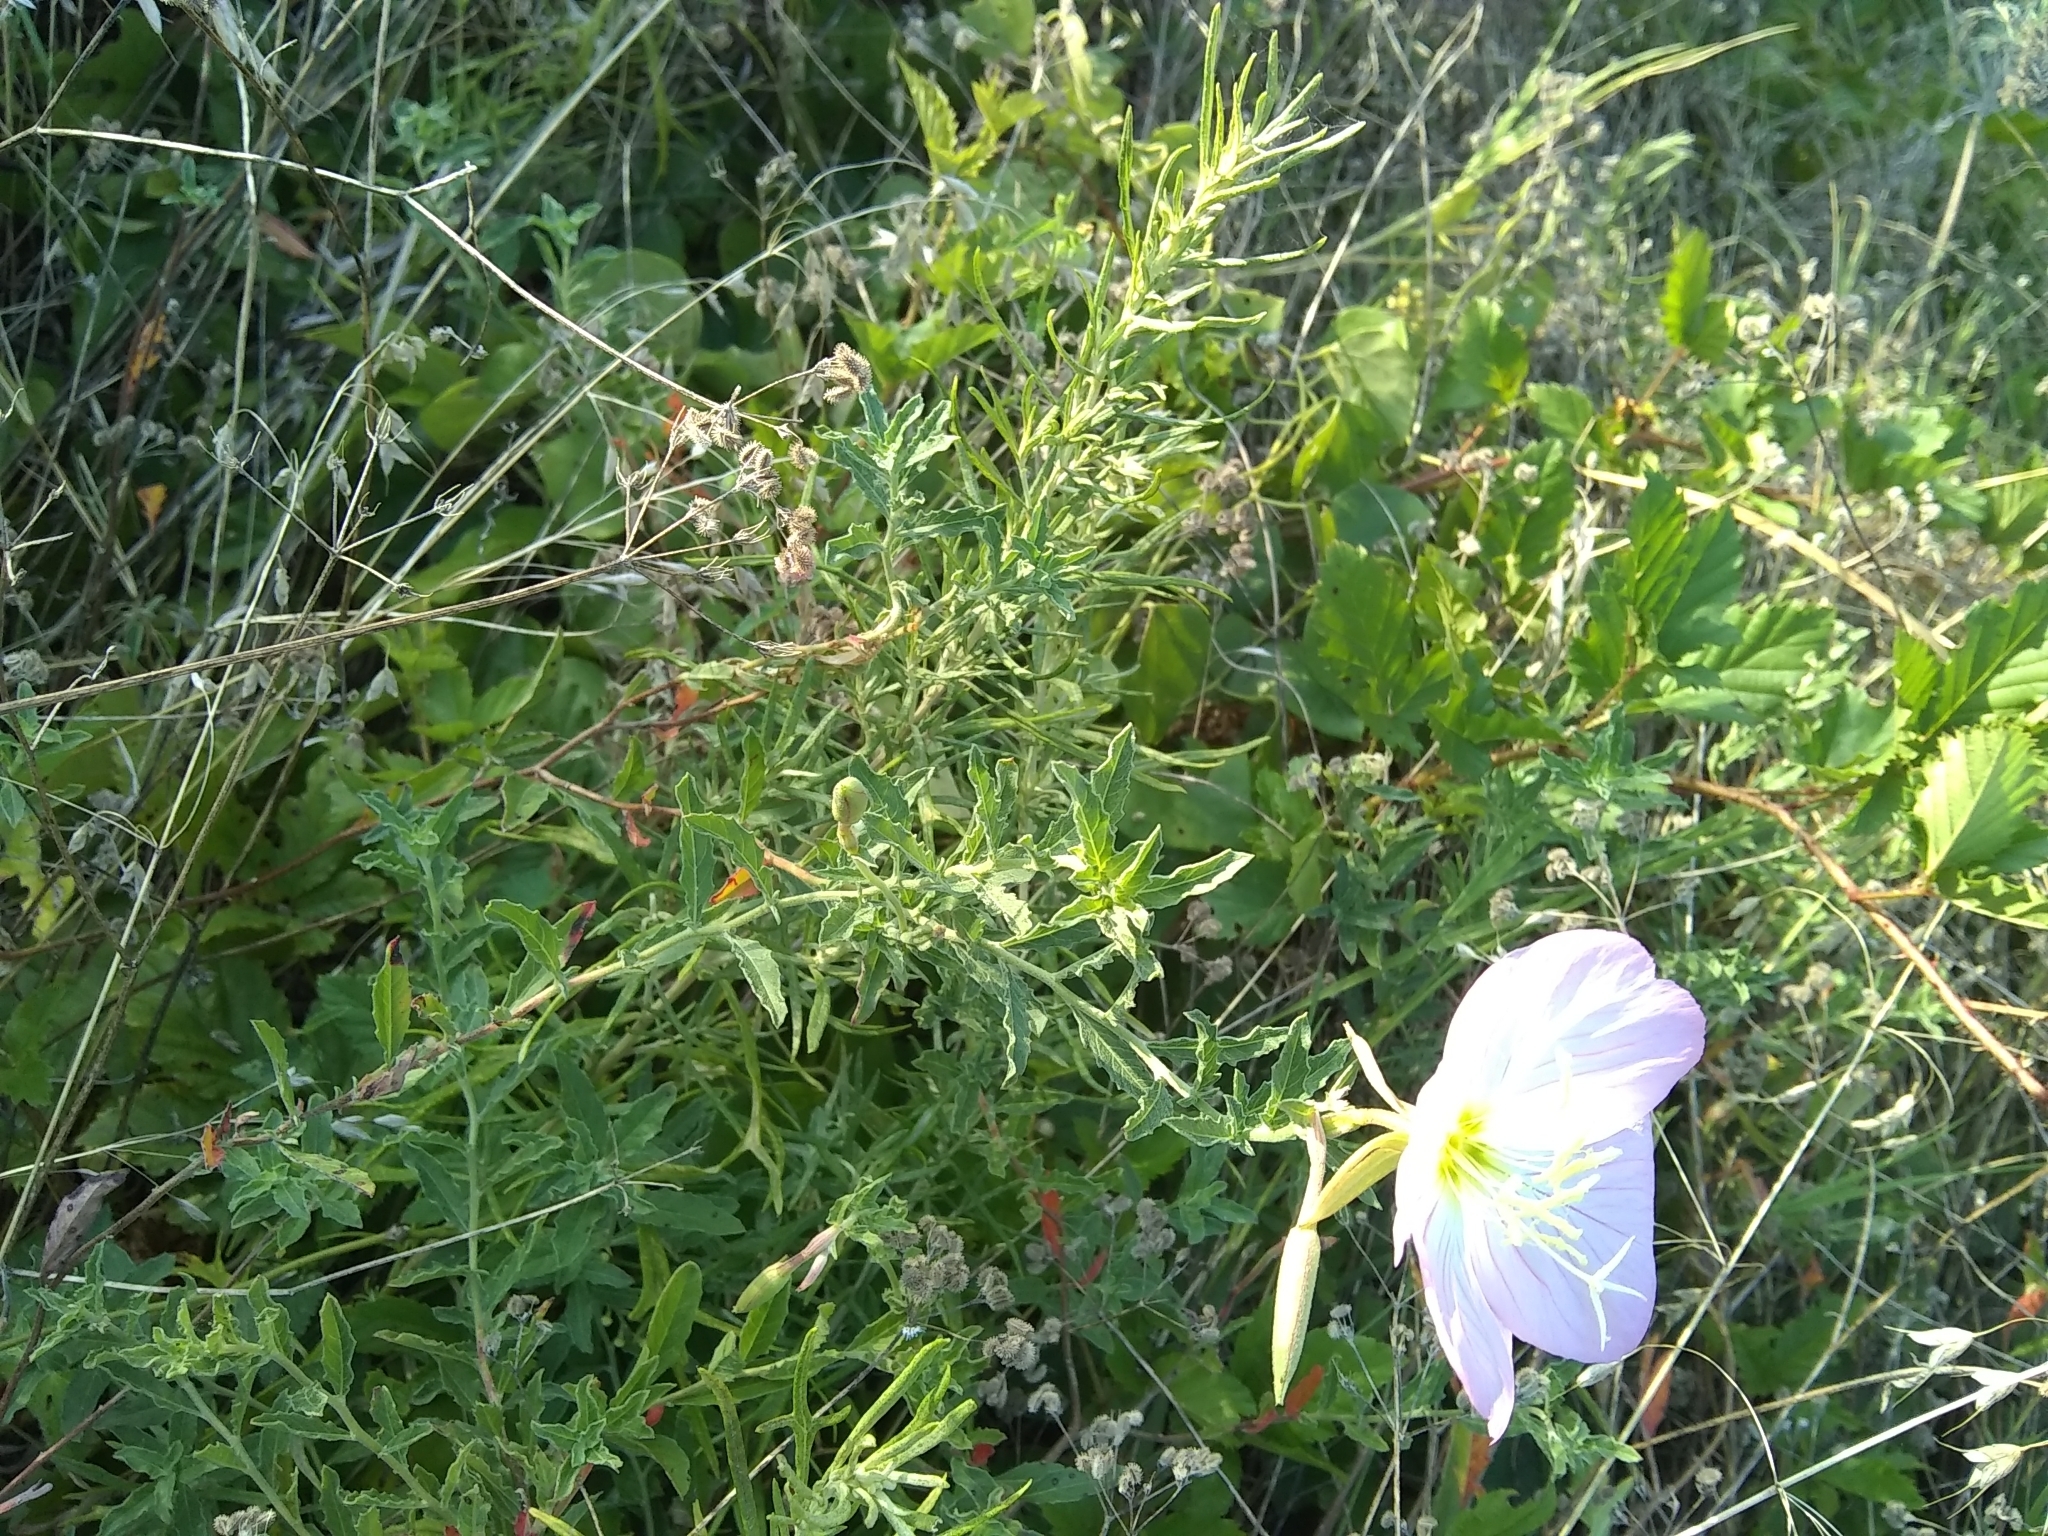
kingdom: Plantae
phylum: Tracheophyta
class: Magnoliopsida
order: Myrtales
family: Onagraceae
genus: Oenothera
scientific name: Oenothera speciosa
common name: White evening-primrose
